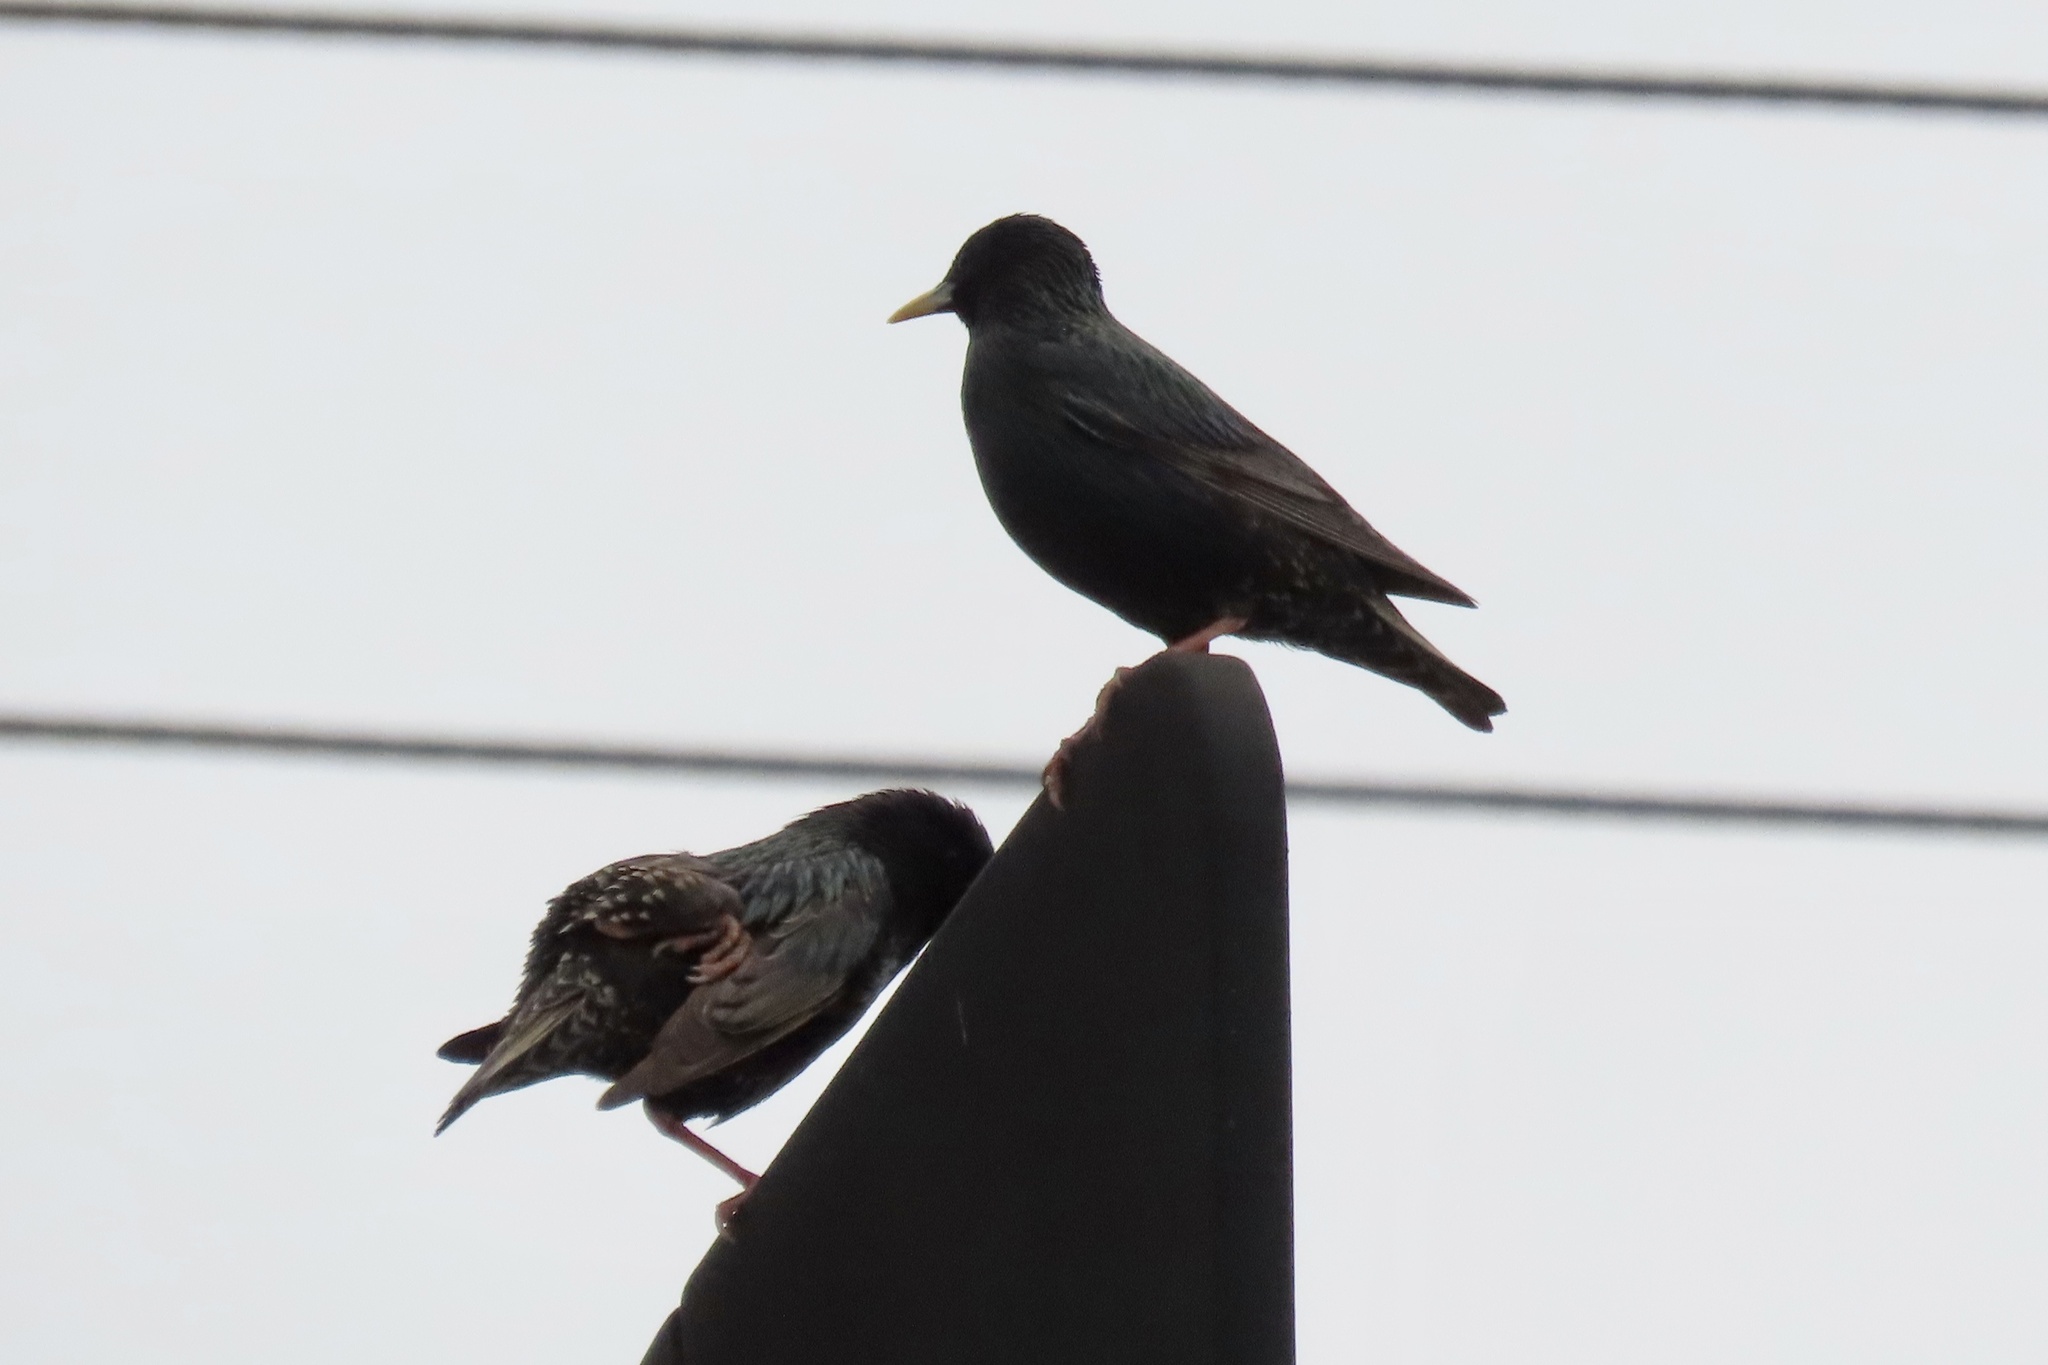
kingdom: Animalia
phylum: Chordata
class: Aves
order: Passeriformes
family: Sturnidae
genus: Sturnus
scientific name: Sturnus vulgaris
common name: Common starling
